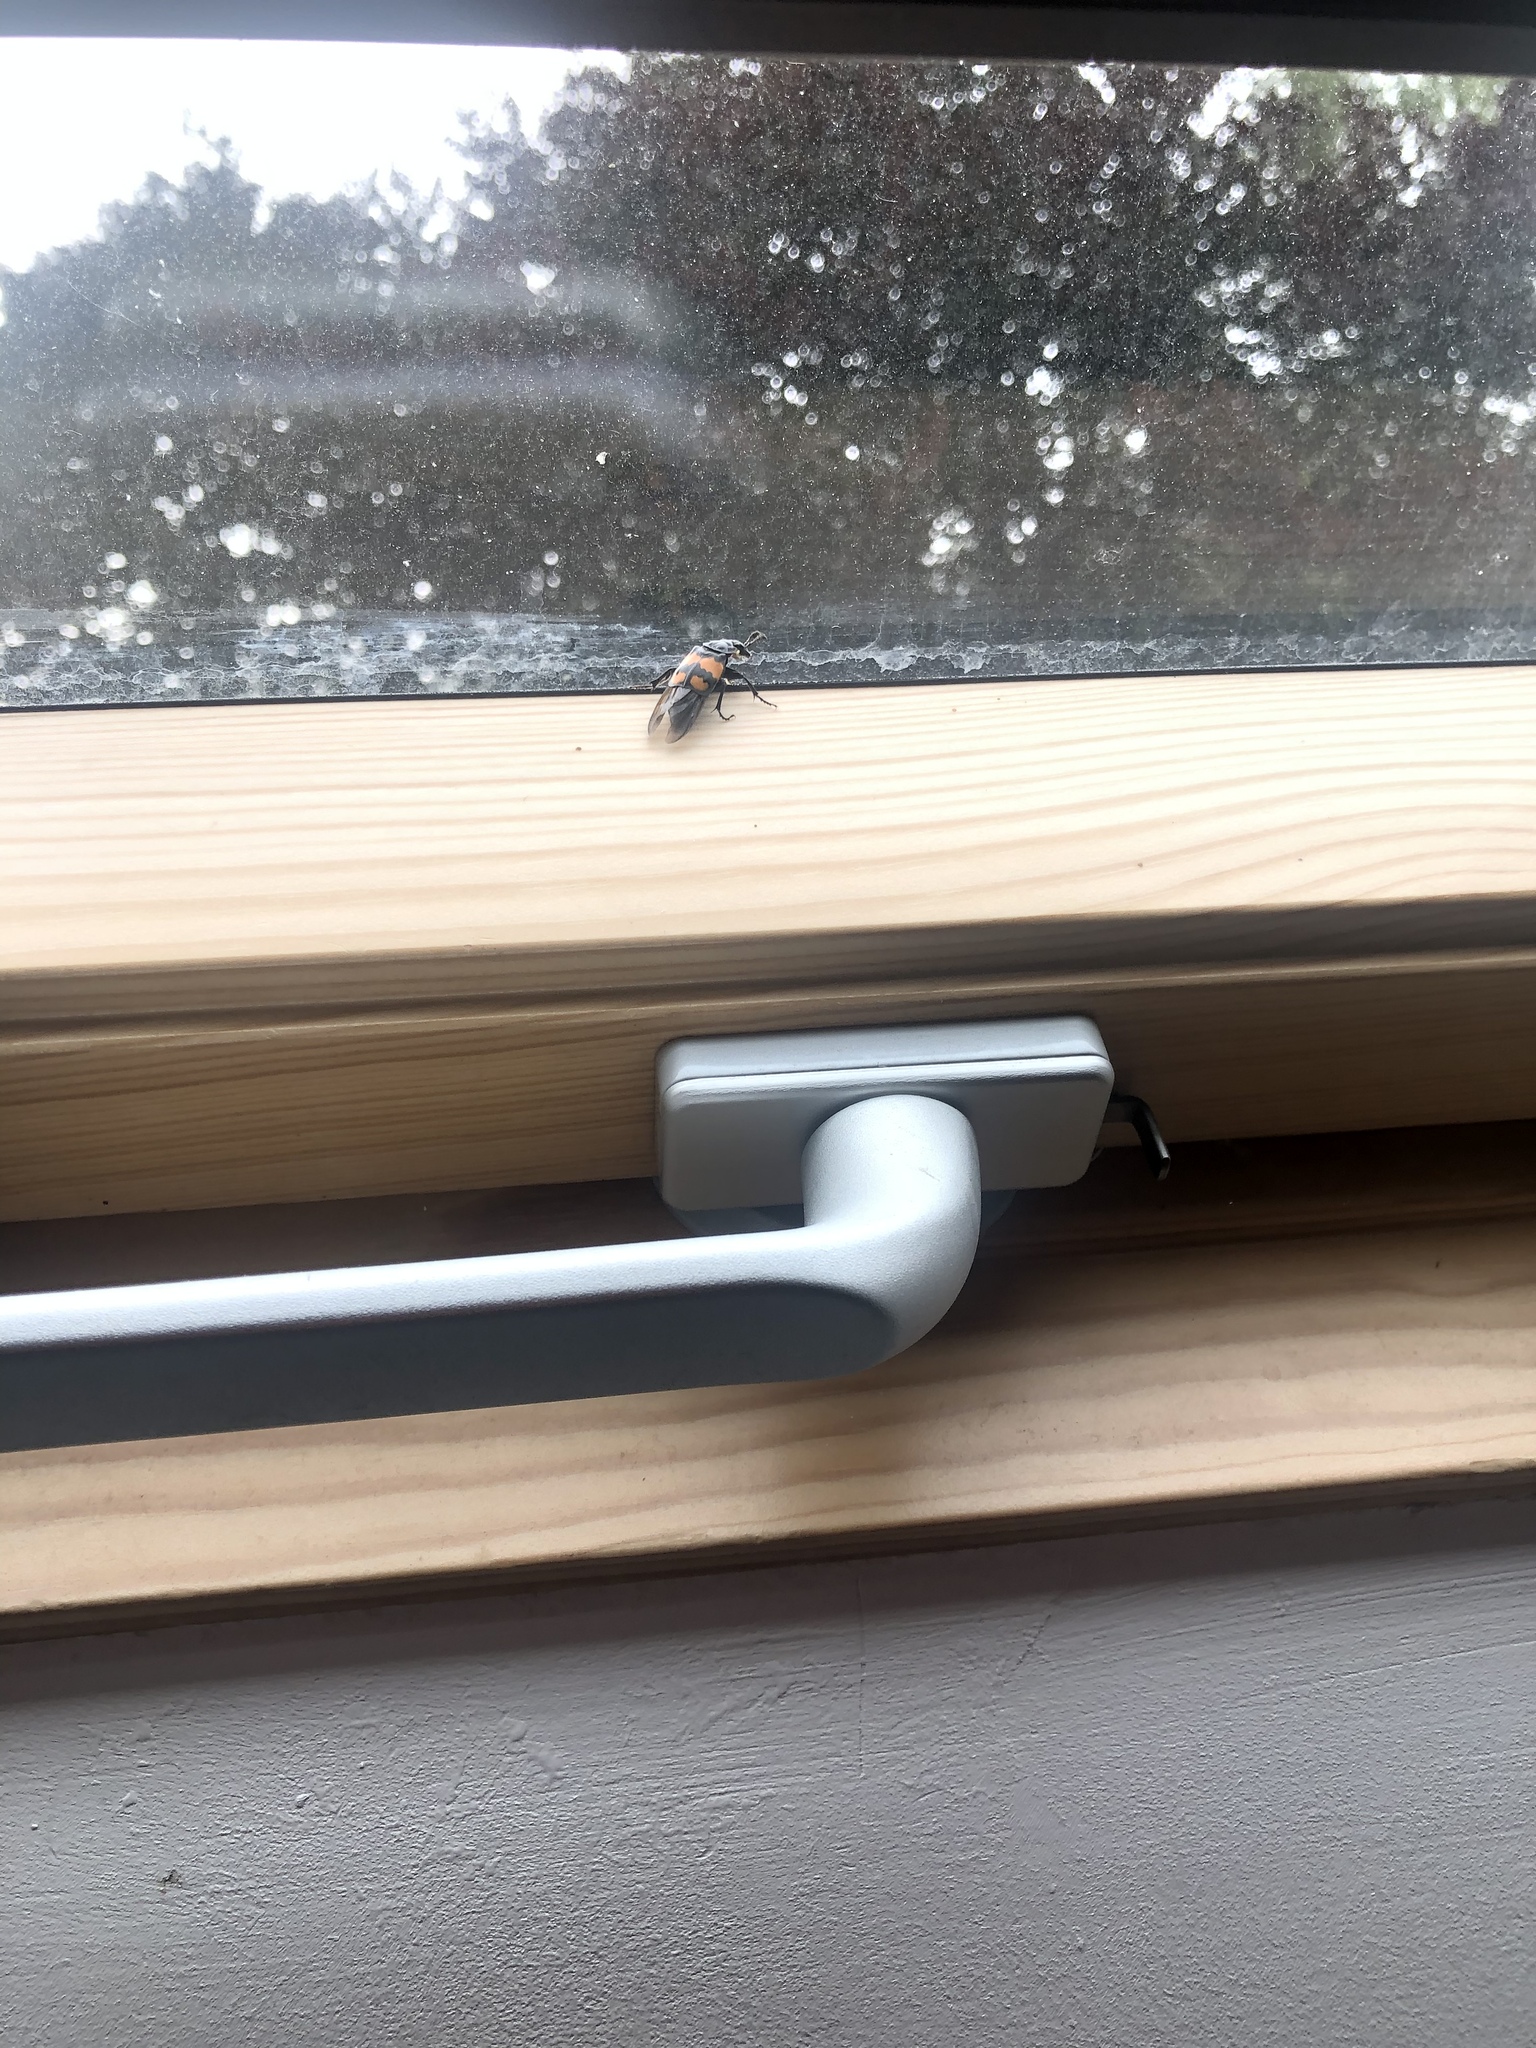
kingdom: Animalia
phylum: Arthropoda
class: Insecta
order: Coleoptera
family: Staphylinidae
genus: Nicrophorus
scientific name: Nicrophorus vespilloides
